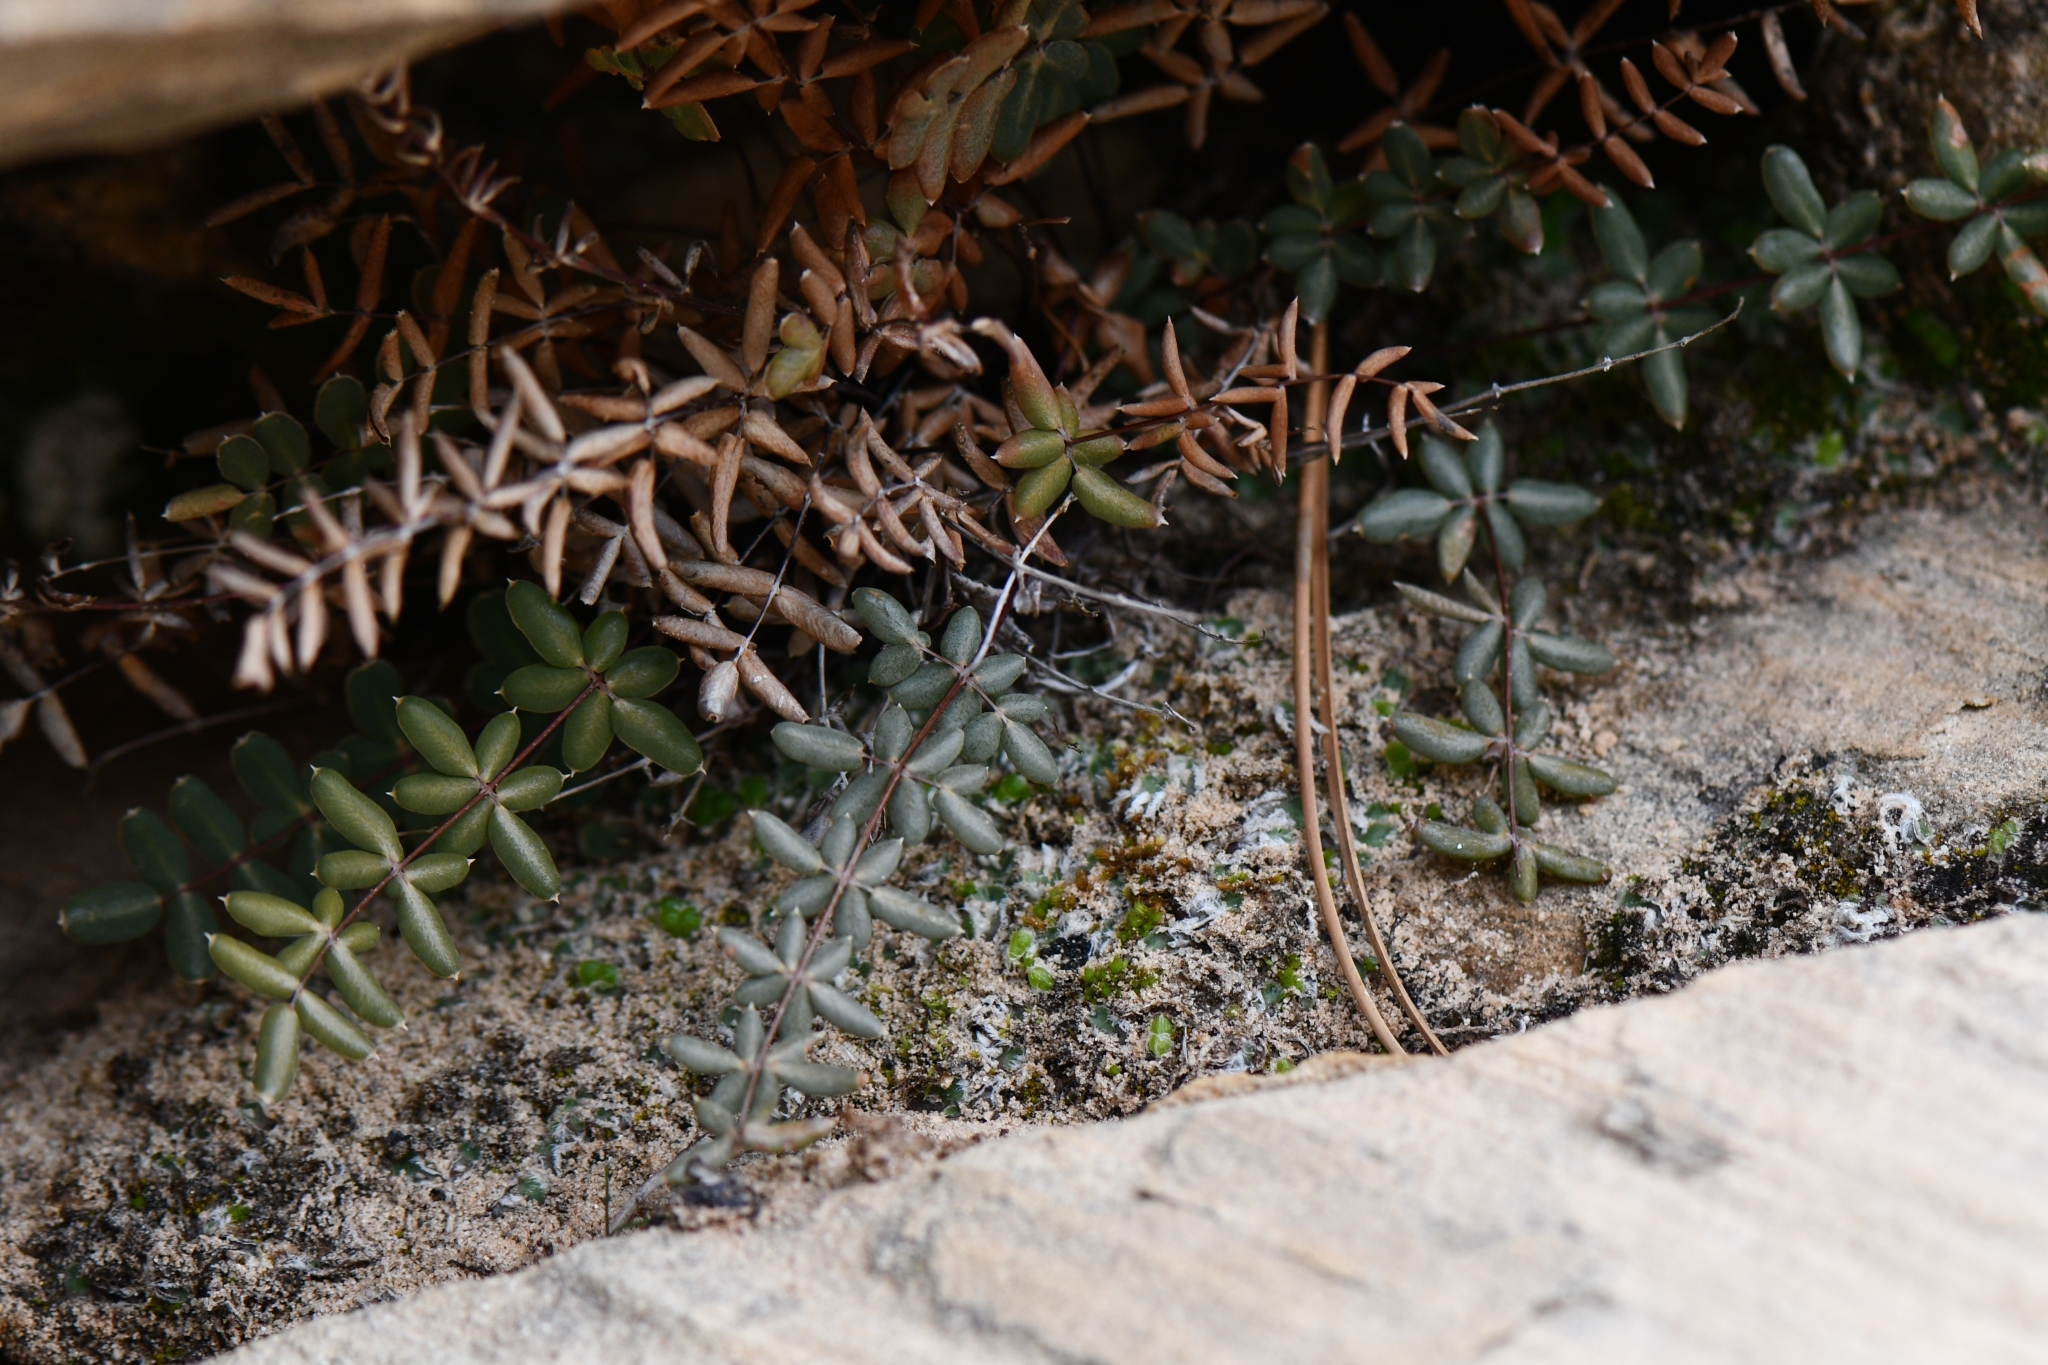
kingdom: Plantae
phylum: Tracheophyta
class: Polypodiopsida
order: Polypodiales
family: Pteridaceae
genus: Pellaea
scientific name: Pellaea wrightiana
